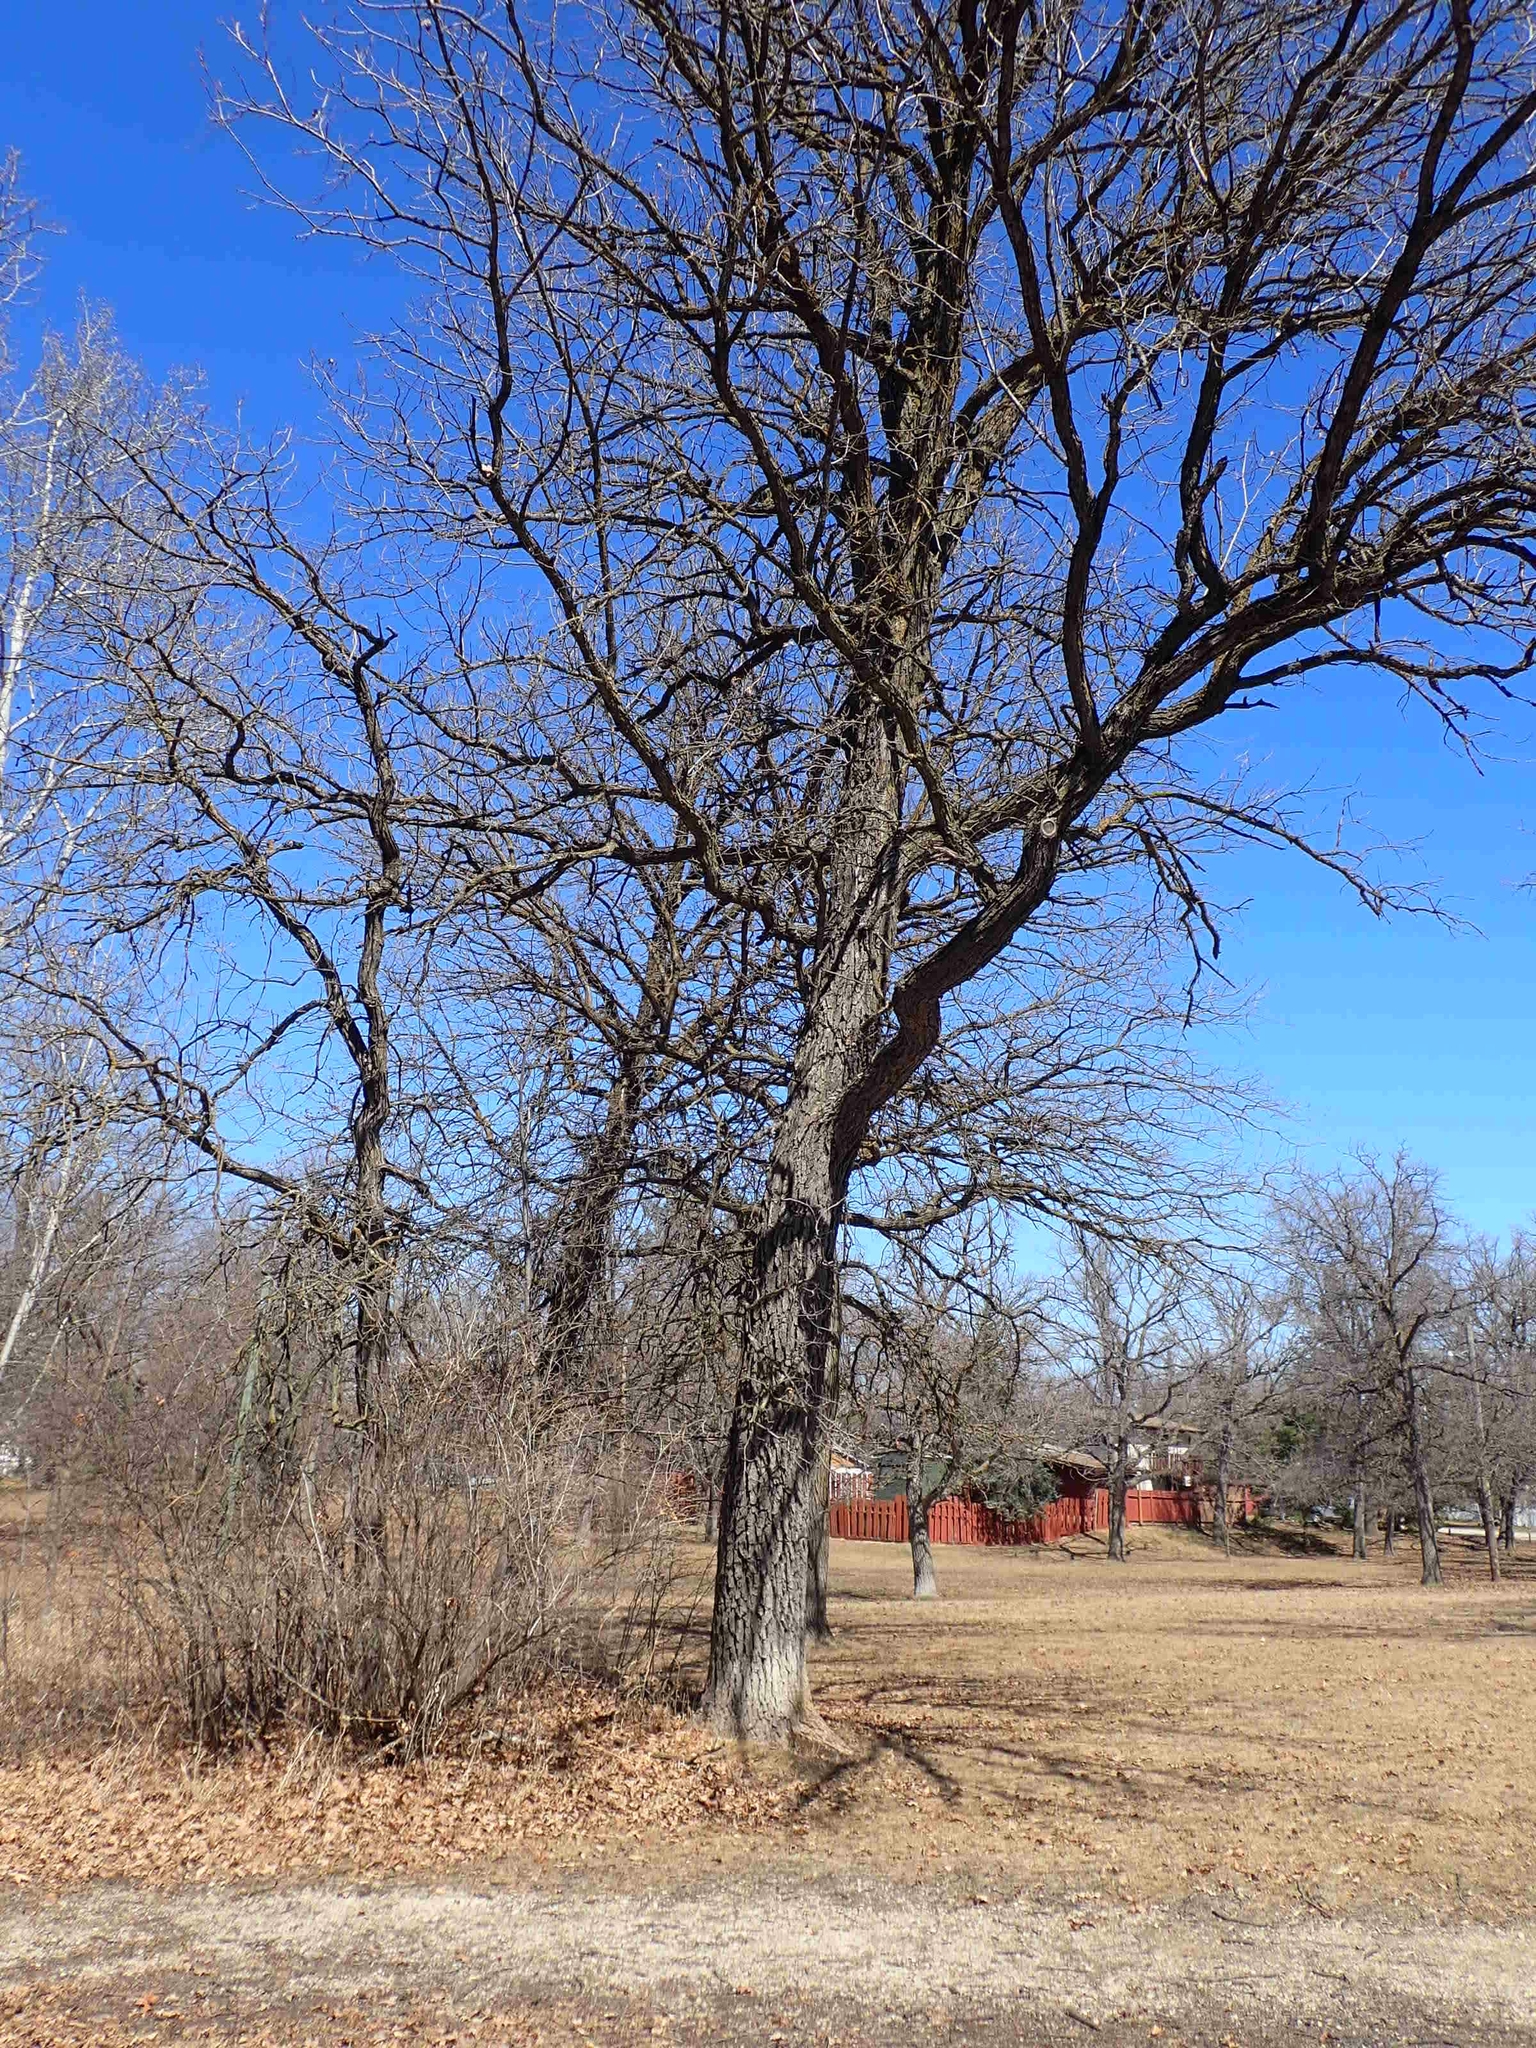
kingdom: Plantae
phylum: Tracheophyta
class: Magnoliopsida
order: Fagales
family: Fagaceae
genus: Quercus
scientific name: Quercus macrocarpa
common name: Bur oak
